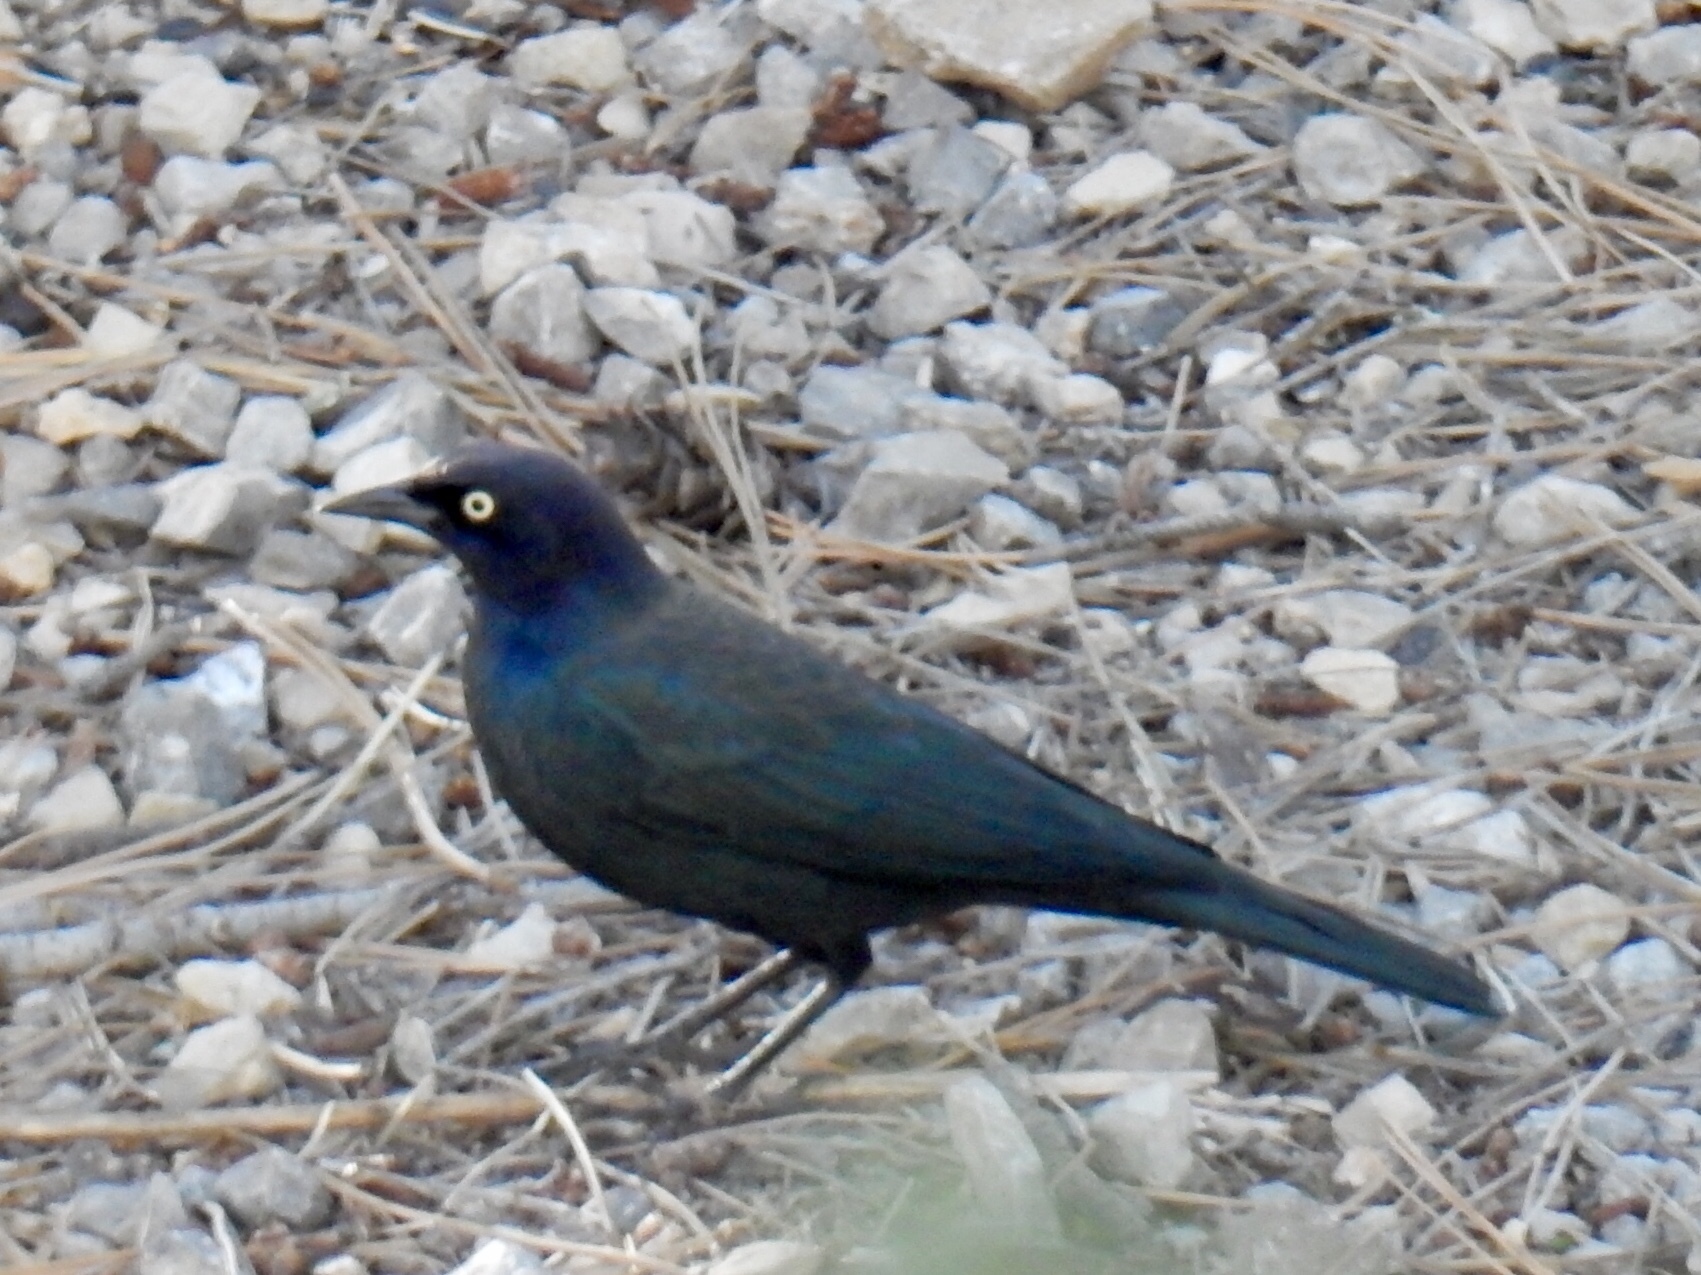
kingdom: Animalia
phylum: Chordata
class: Aves
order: Passeriformes
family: Icteridae
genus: Euphagus
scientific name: Euphagus cyanocephalus
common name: Brewer's blackbird
